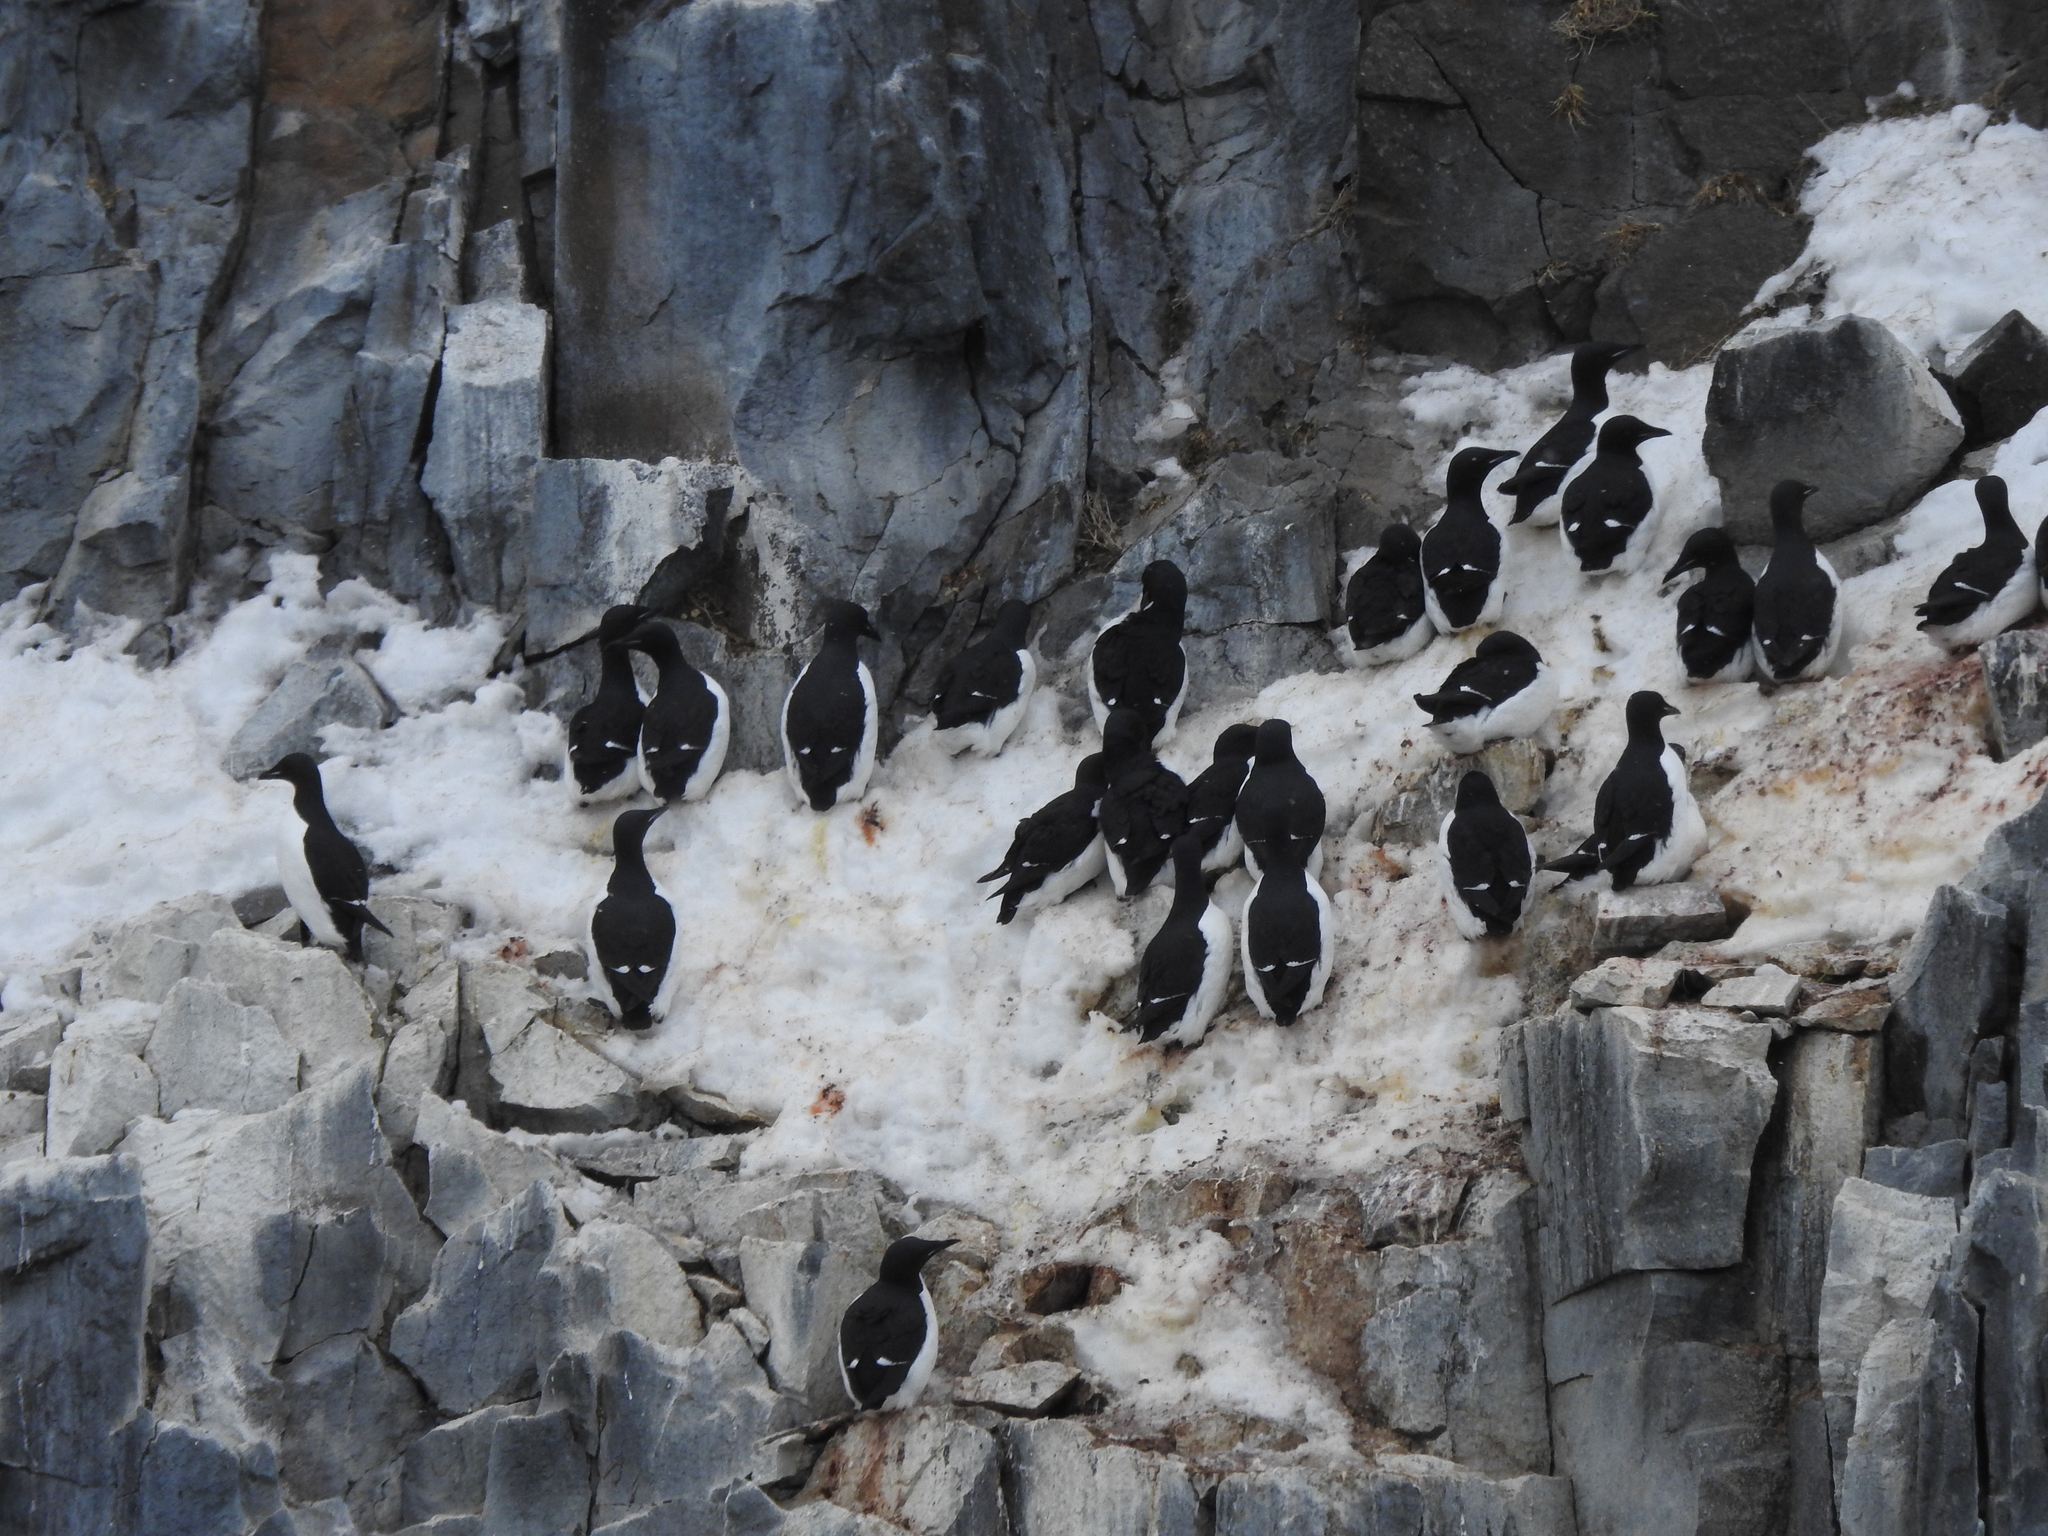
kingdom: Animalia
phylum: Chordata
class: Aves
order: Charadriiformes
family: Alcidae
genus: Uria
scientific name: Uria lomvia
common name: Thick-billed murre
